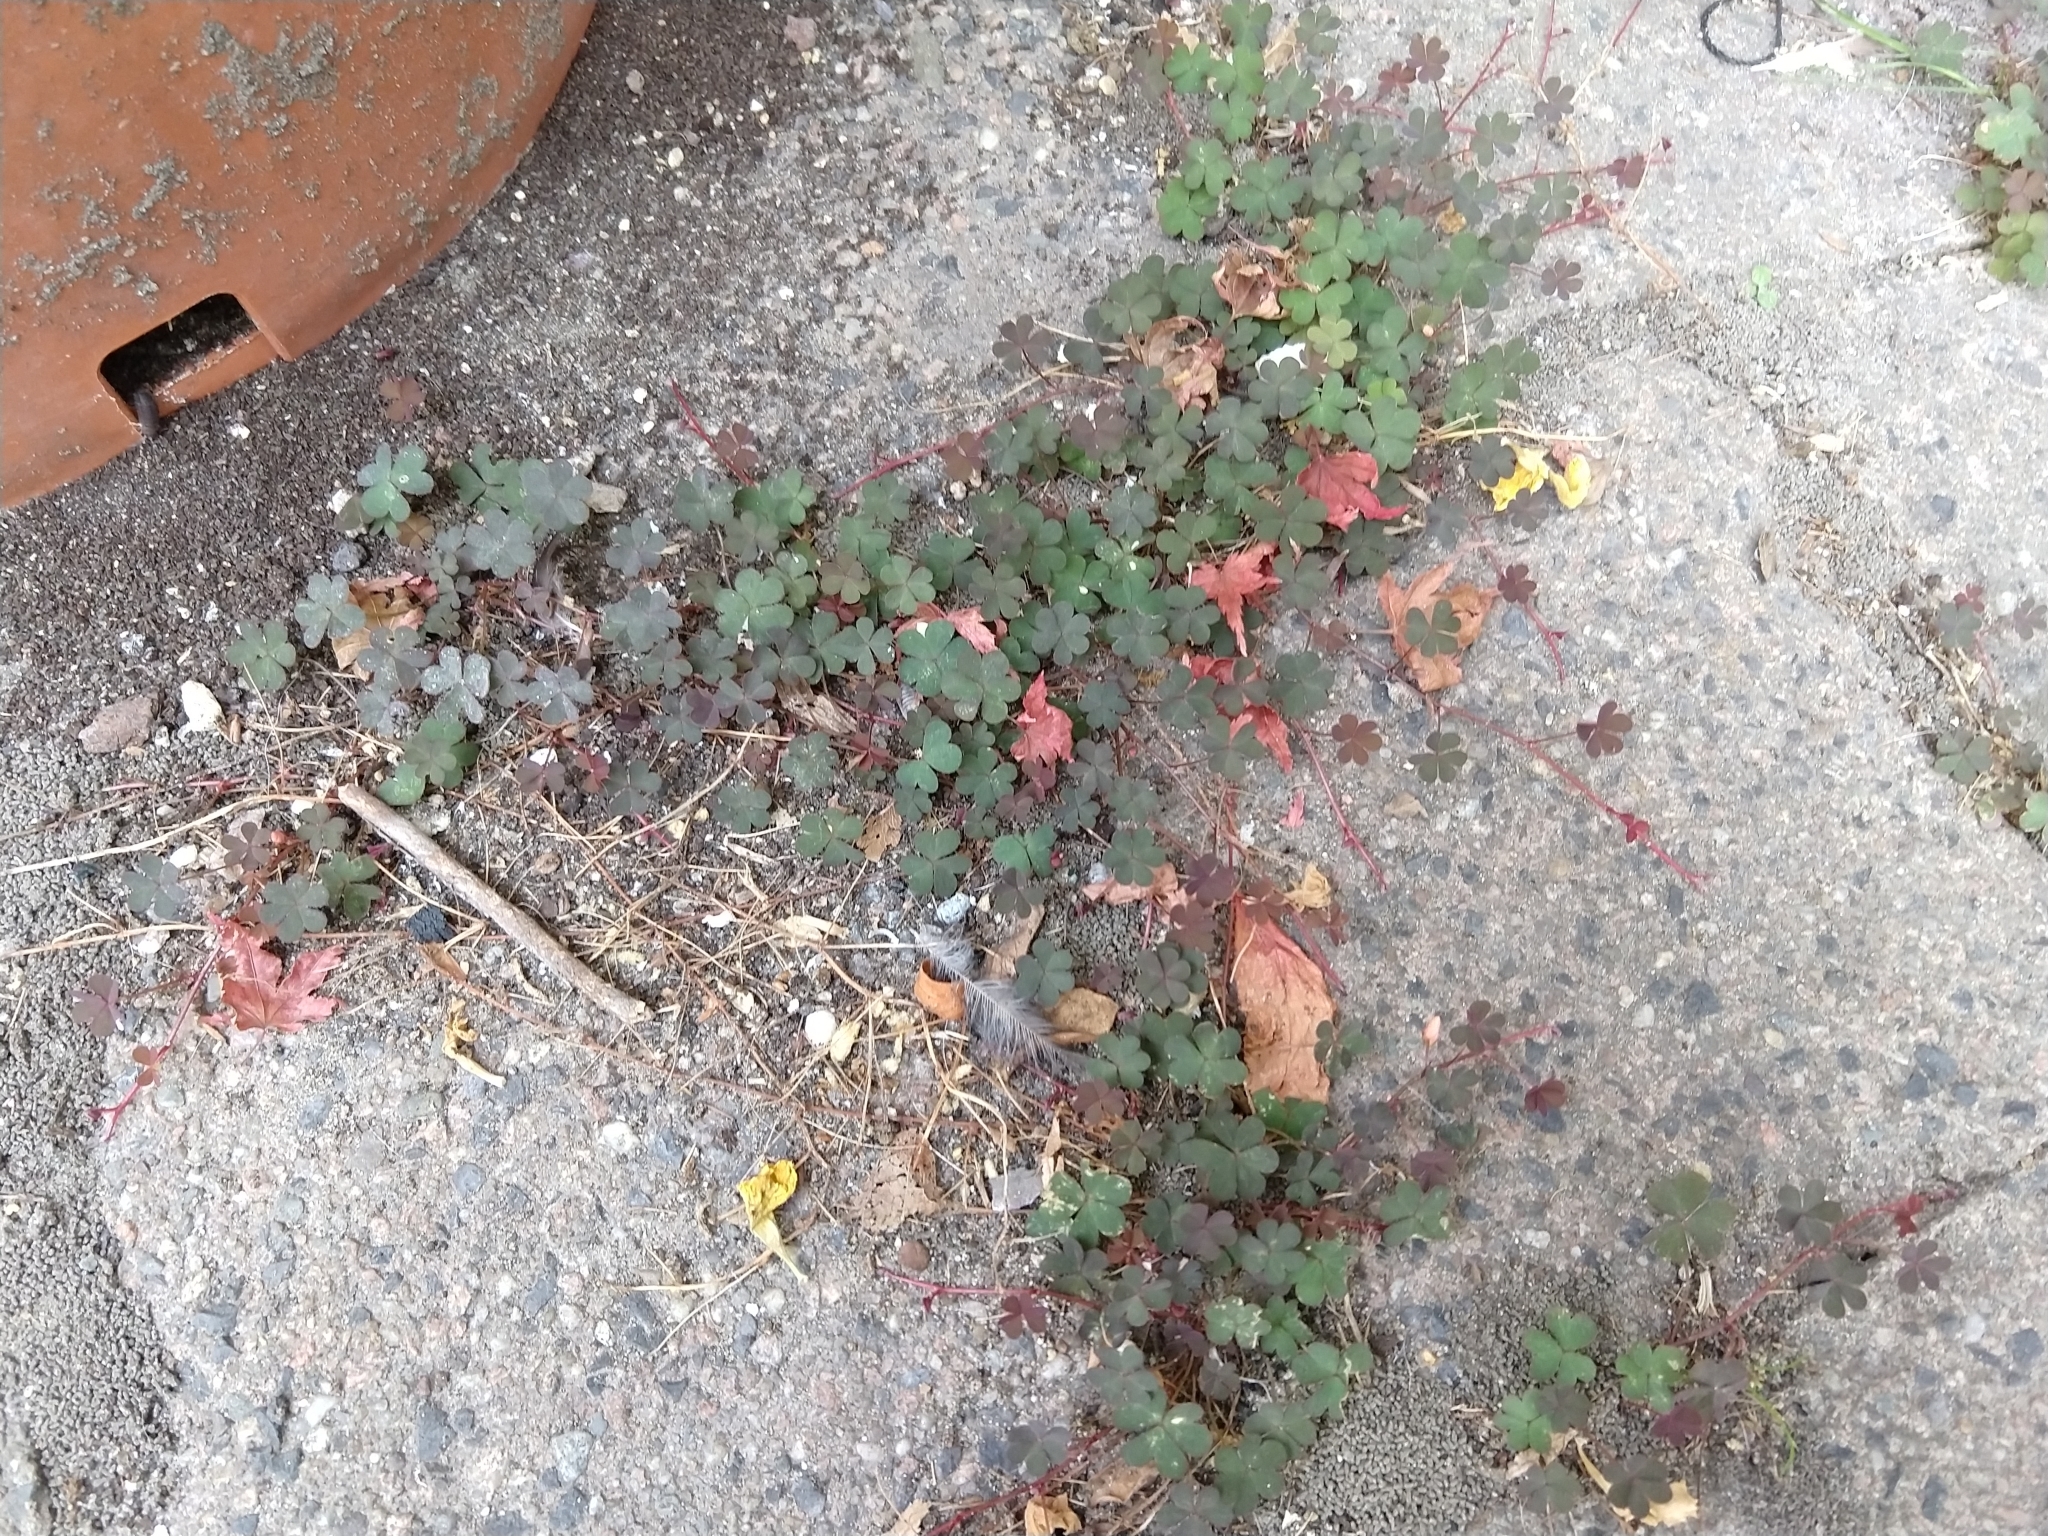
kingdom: Plantae
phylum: Tracheophyta
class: Magnoliopsida
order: Oxalidales
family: Oxalidaceae
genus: Oxalis
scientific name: Oxalis corniculata
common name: Procumbent yellow-sorrel
